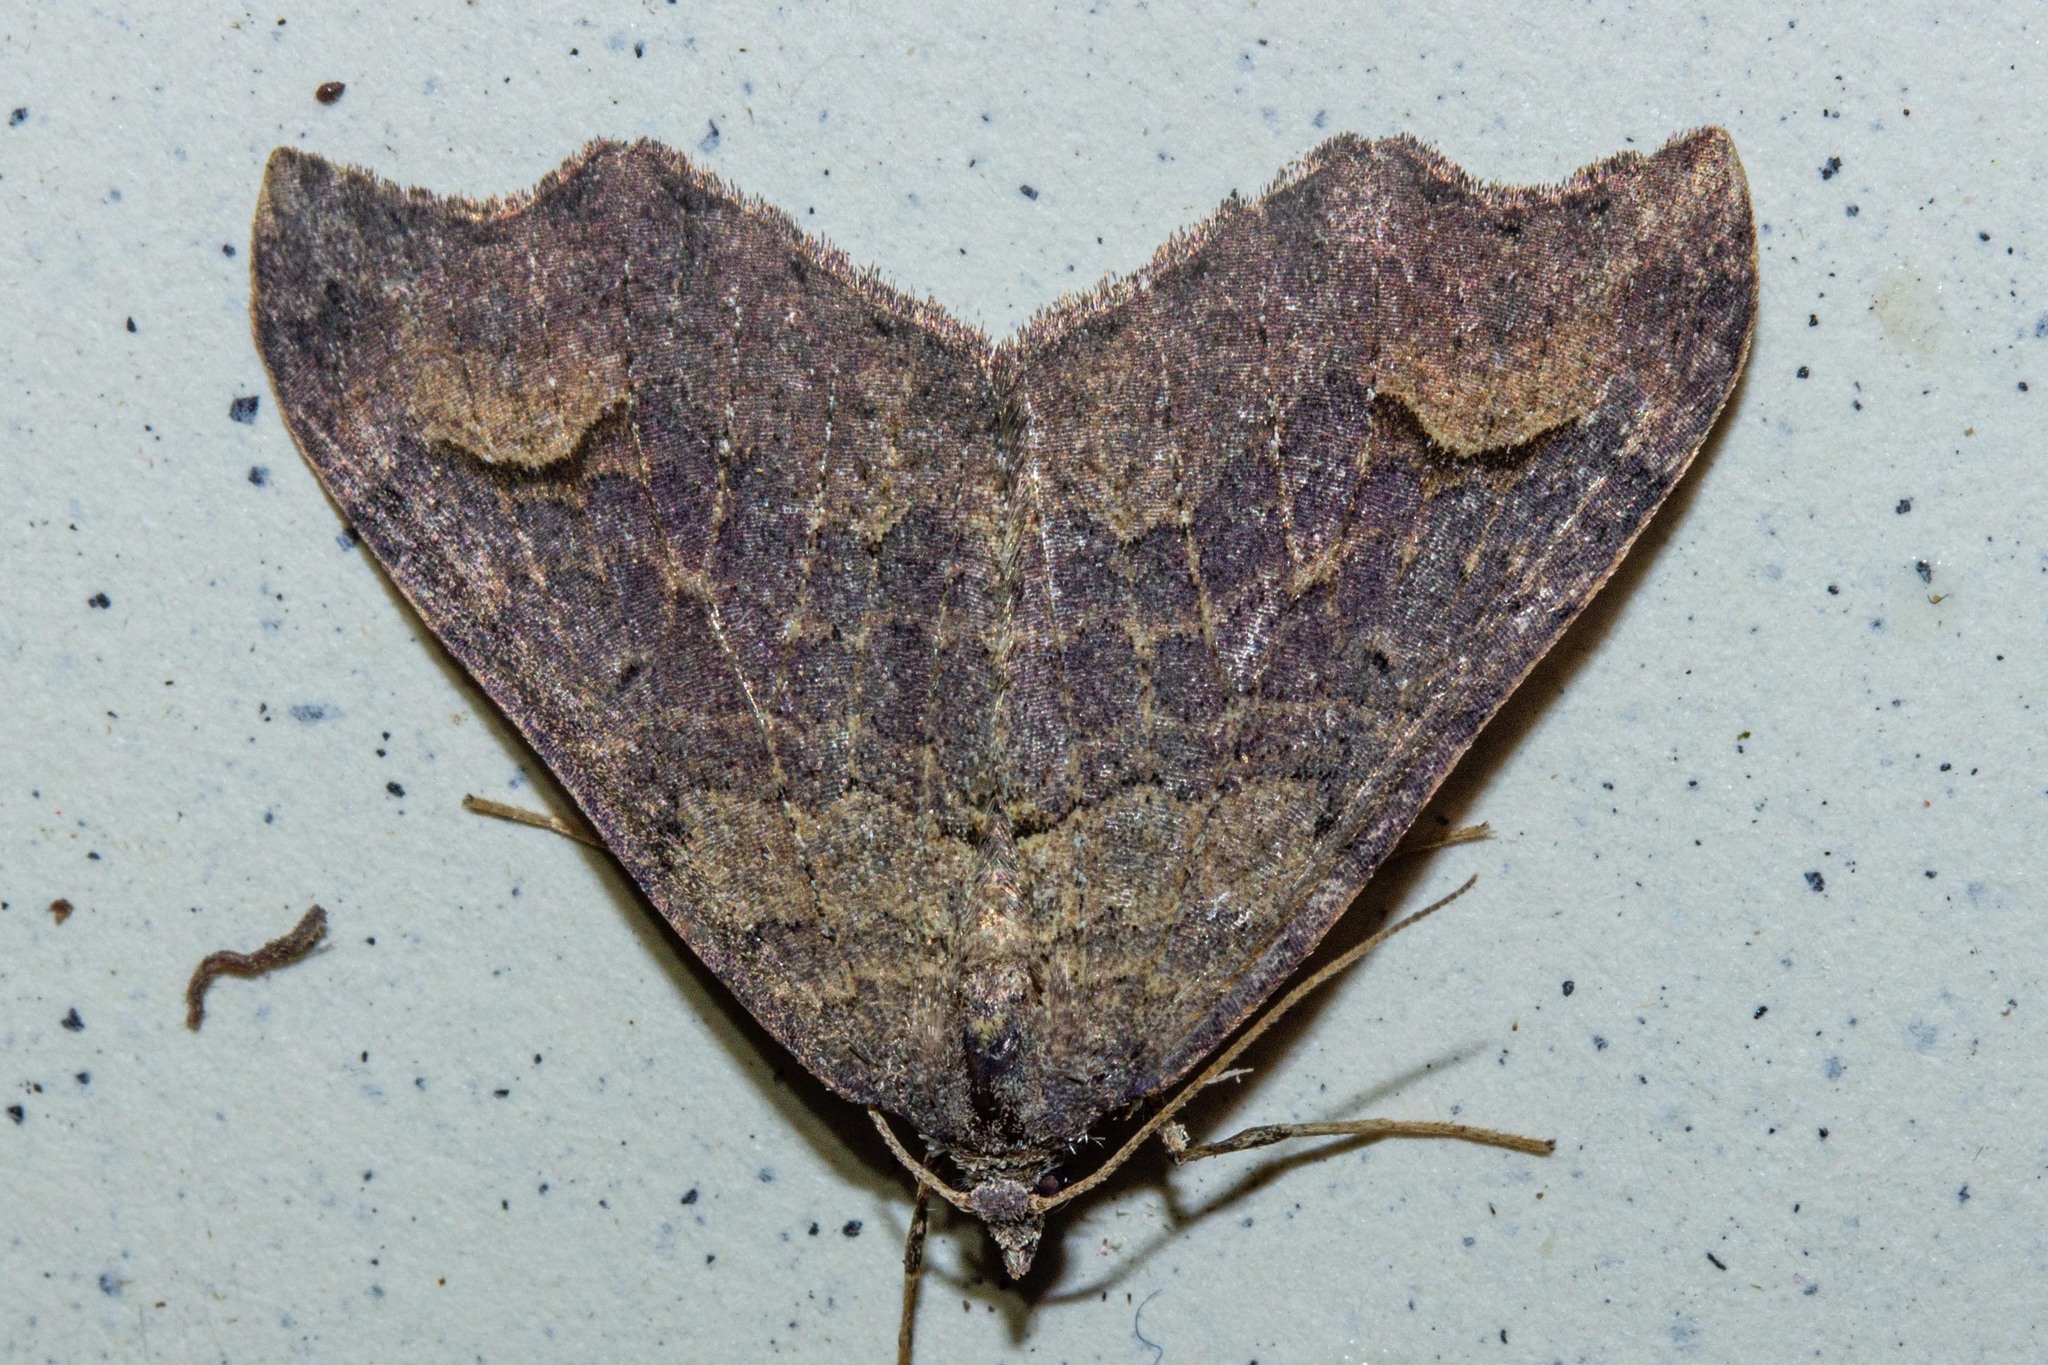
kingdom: Animalia
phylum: Arthropoda
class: Insecta
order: Lepidoptera
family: Geometridae
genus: Austrocidaria
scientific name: Austrocidaria parora
